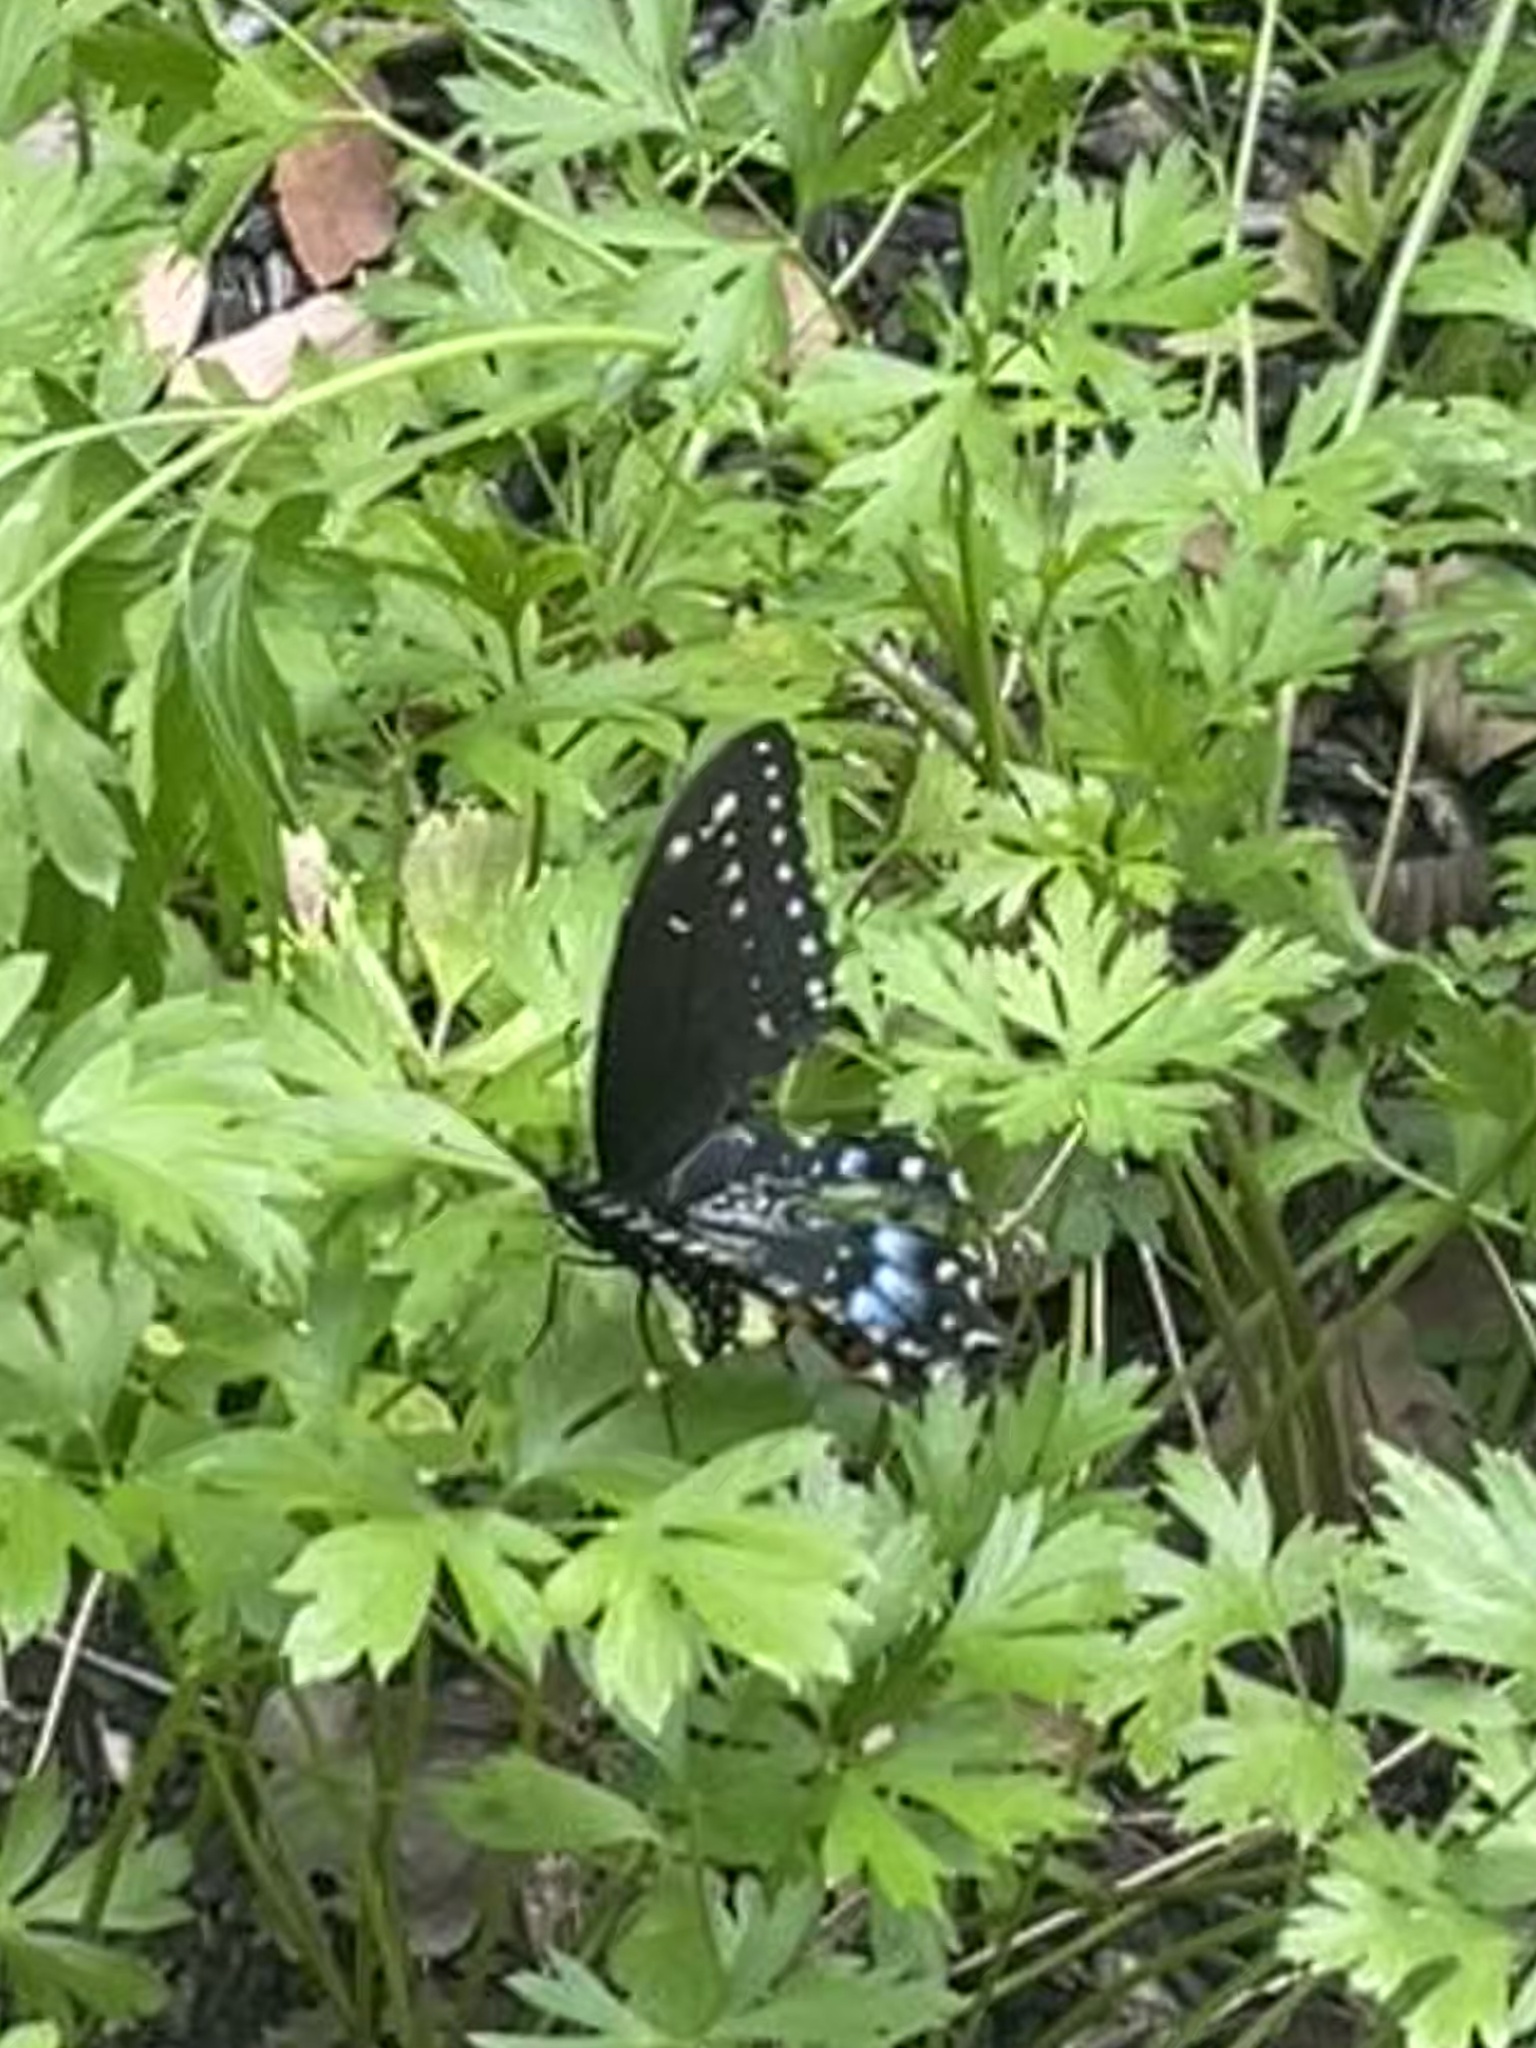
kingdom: Animalia
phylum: Arthropoda
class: Insecta
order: Lepidoptera
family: Papilionidae
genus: Papilio
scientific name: Papilio polyxenes
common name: Black swallowtail
